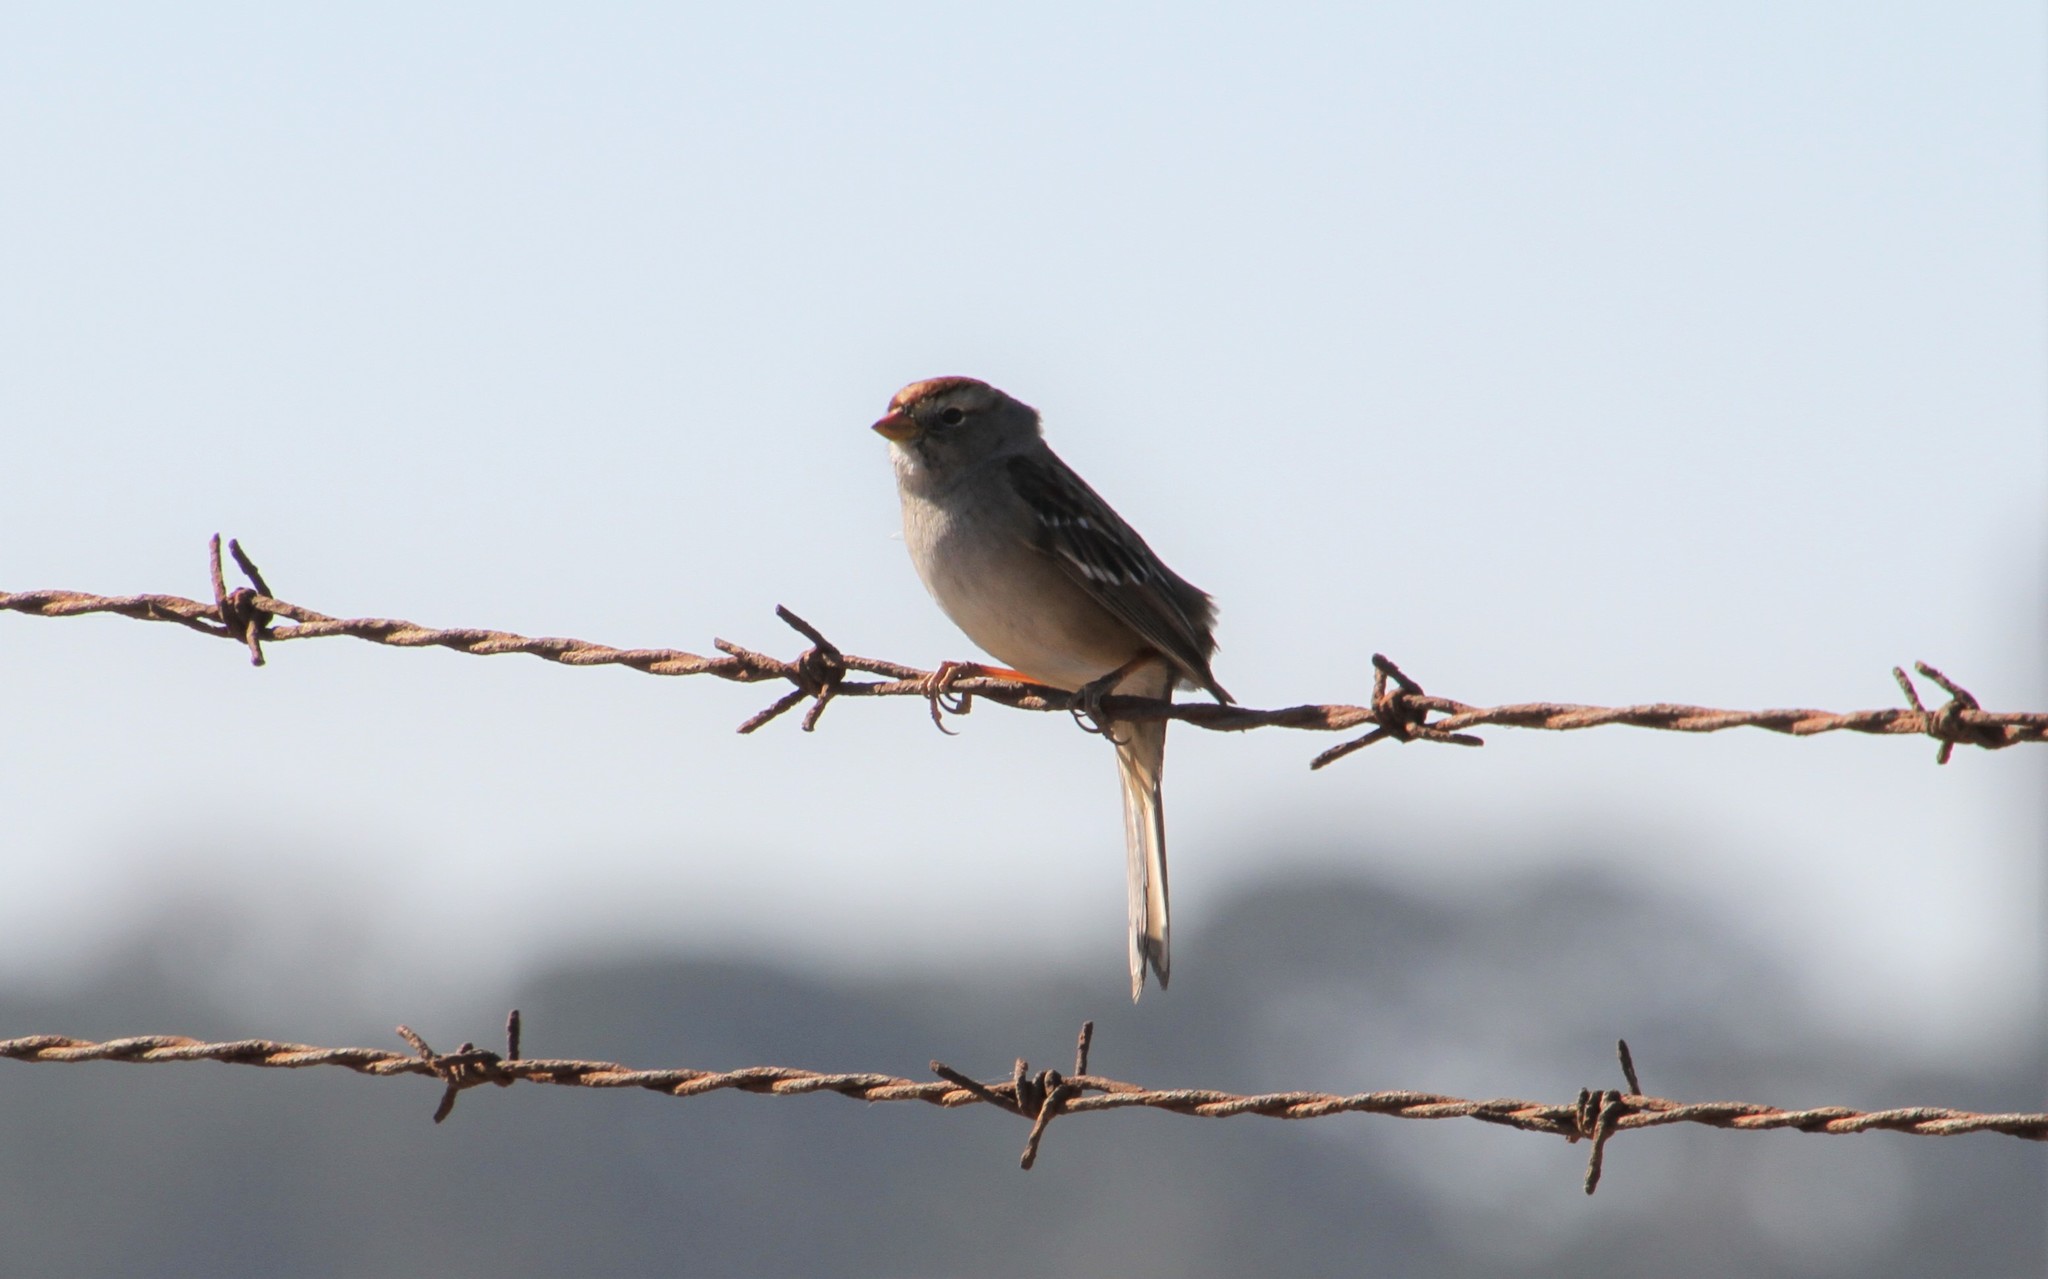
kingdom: Animalia
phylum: Chordata
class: Aves
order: Passeriformes
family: Passerellidae
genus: Zonotrichia
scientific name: Zonotrichia leucophrys
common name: White-crowned sparrow
